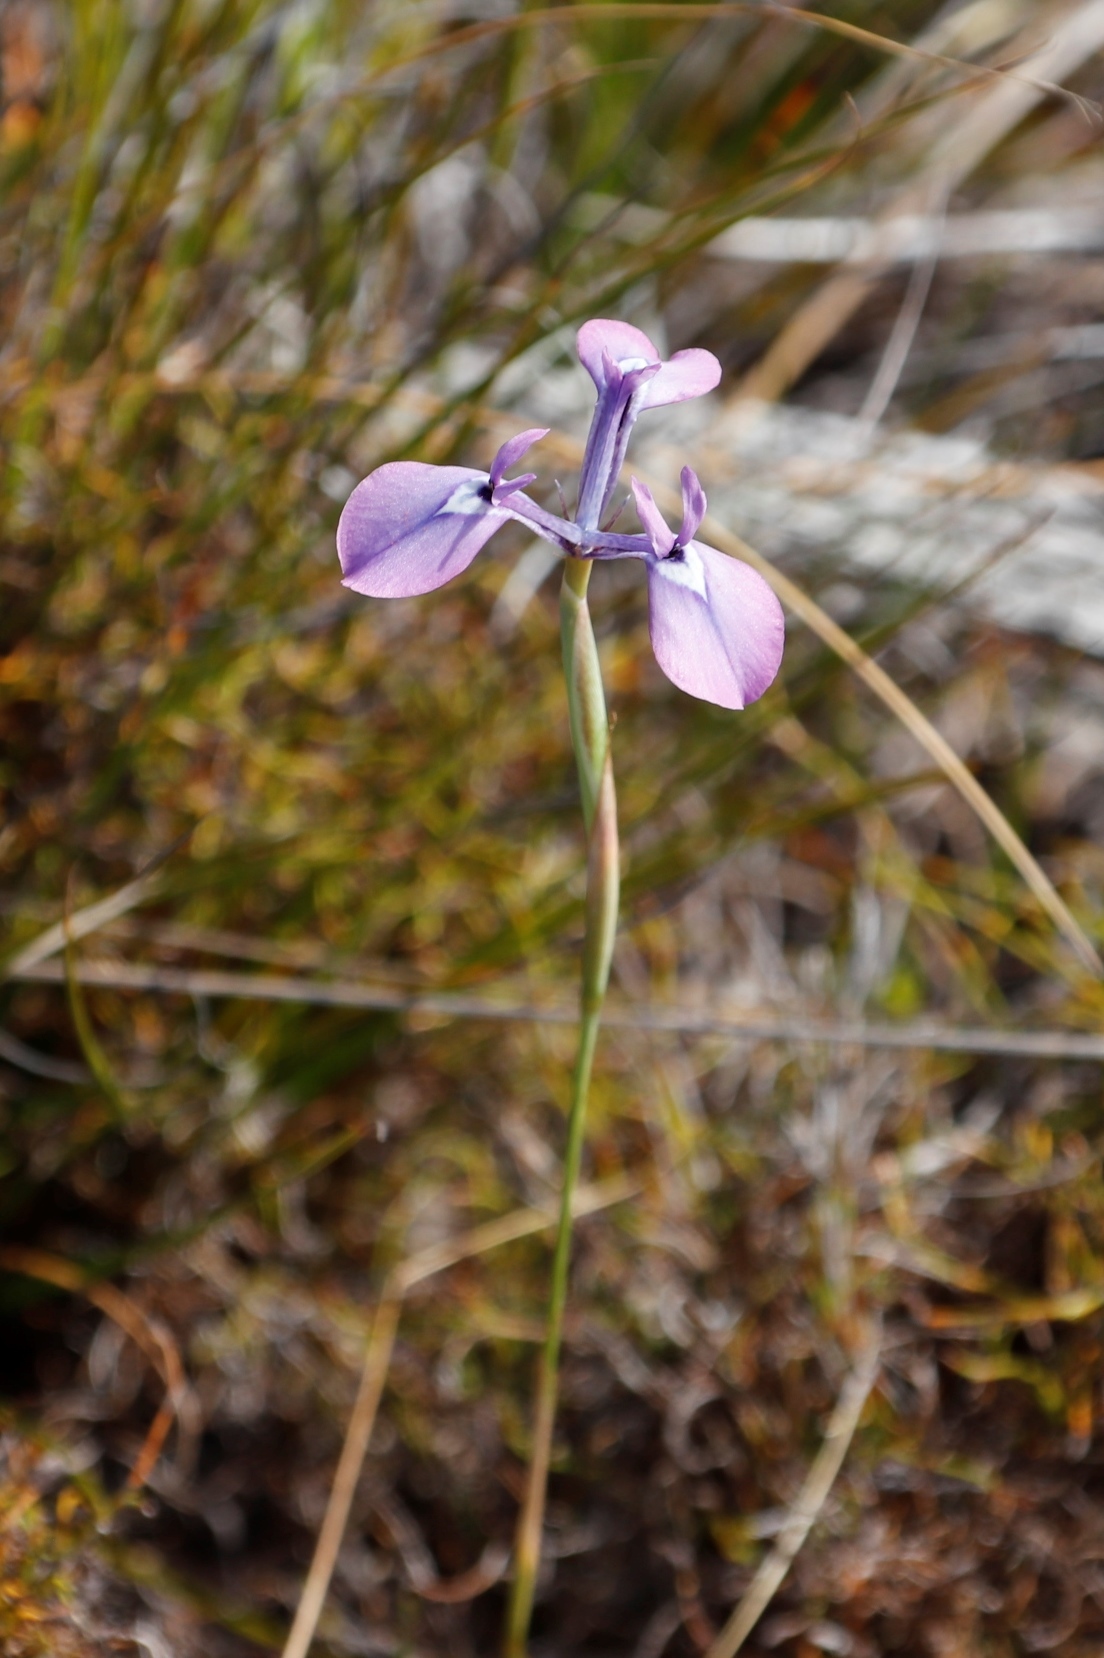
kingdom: Plantae
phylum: Tracheophyta
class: Liliopsida
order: Asparagales
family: Iridaceae
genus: Moraea
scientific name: Moraea tripetala
